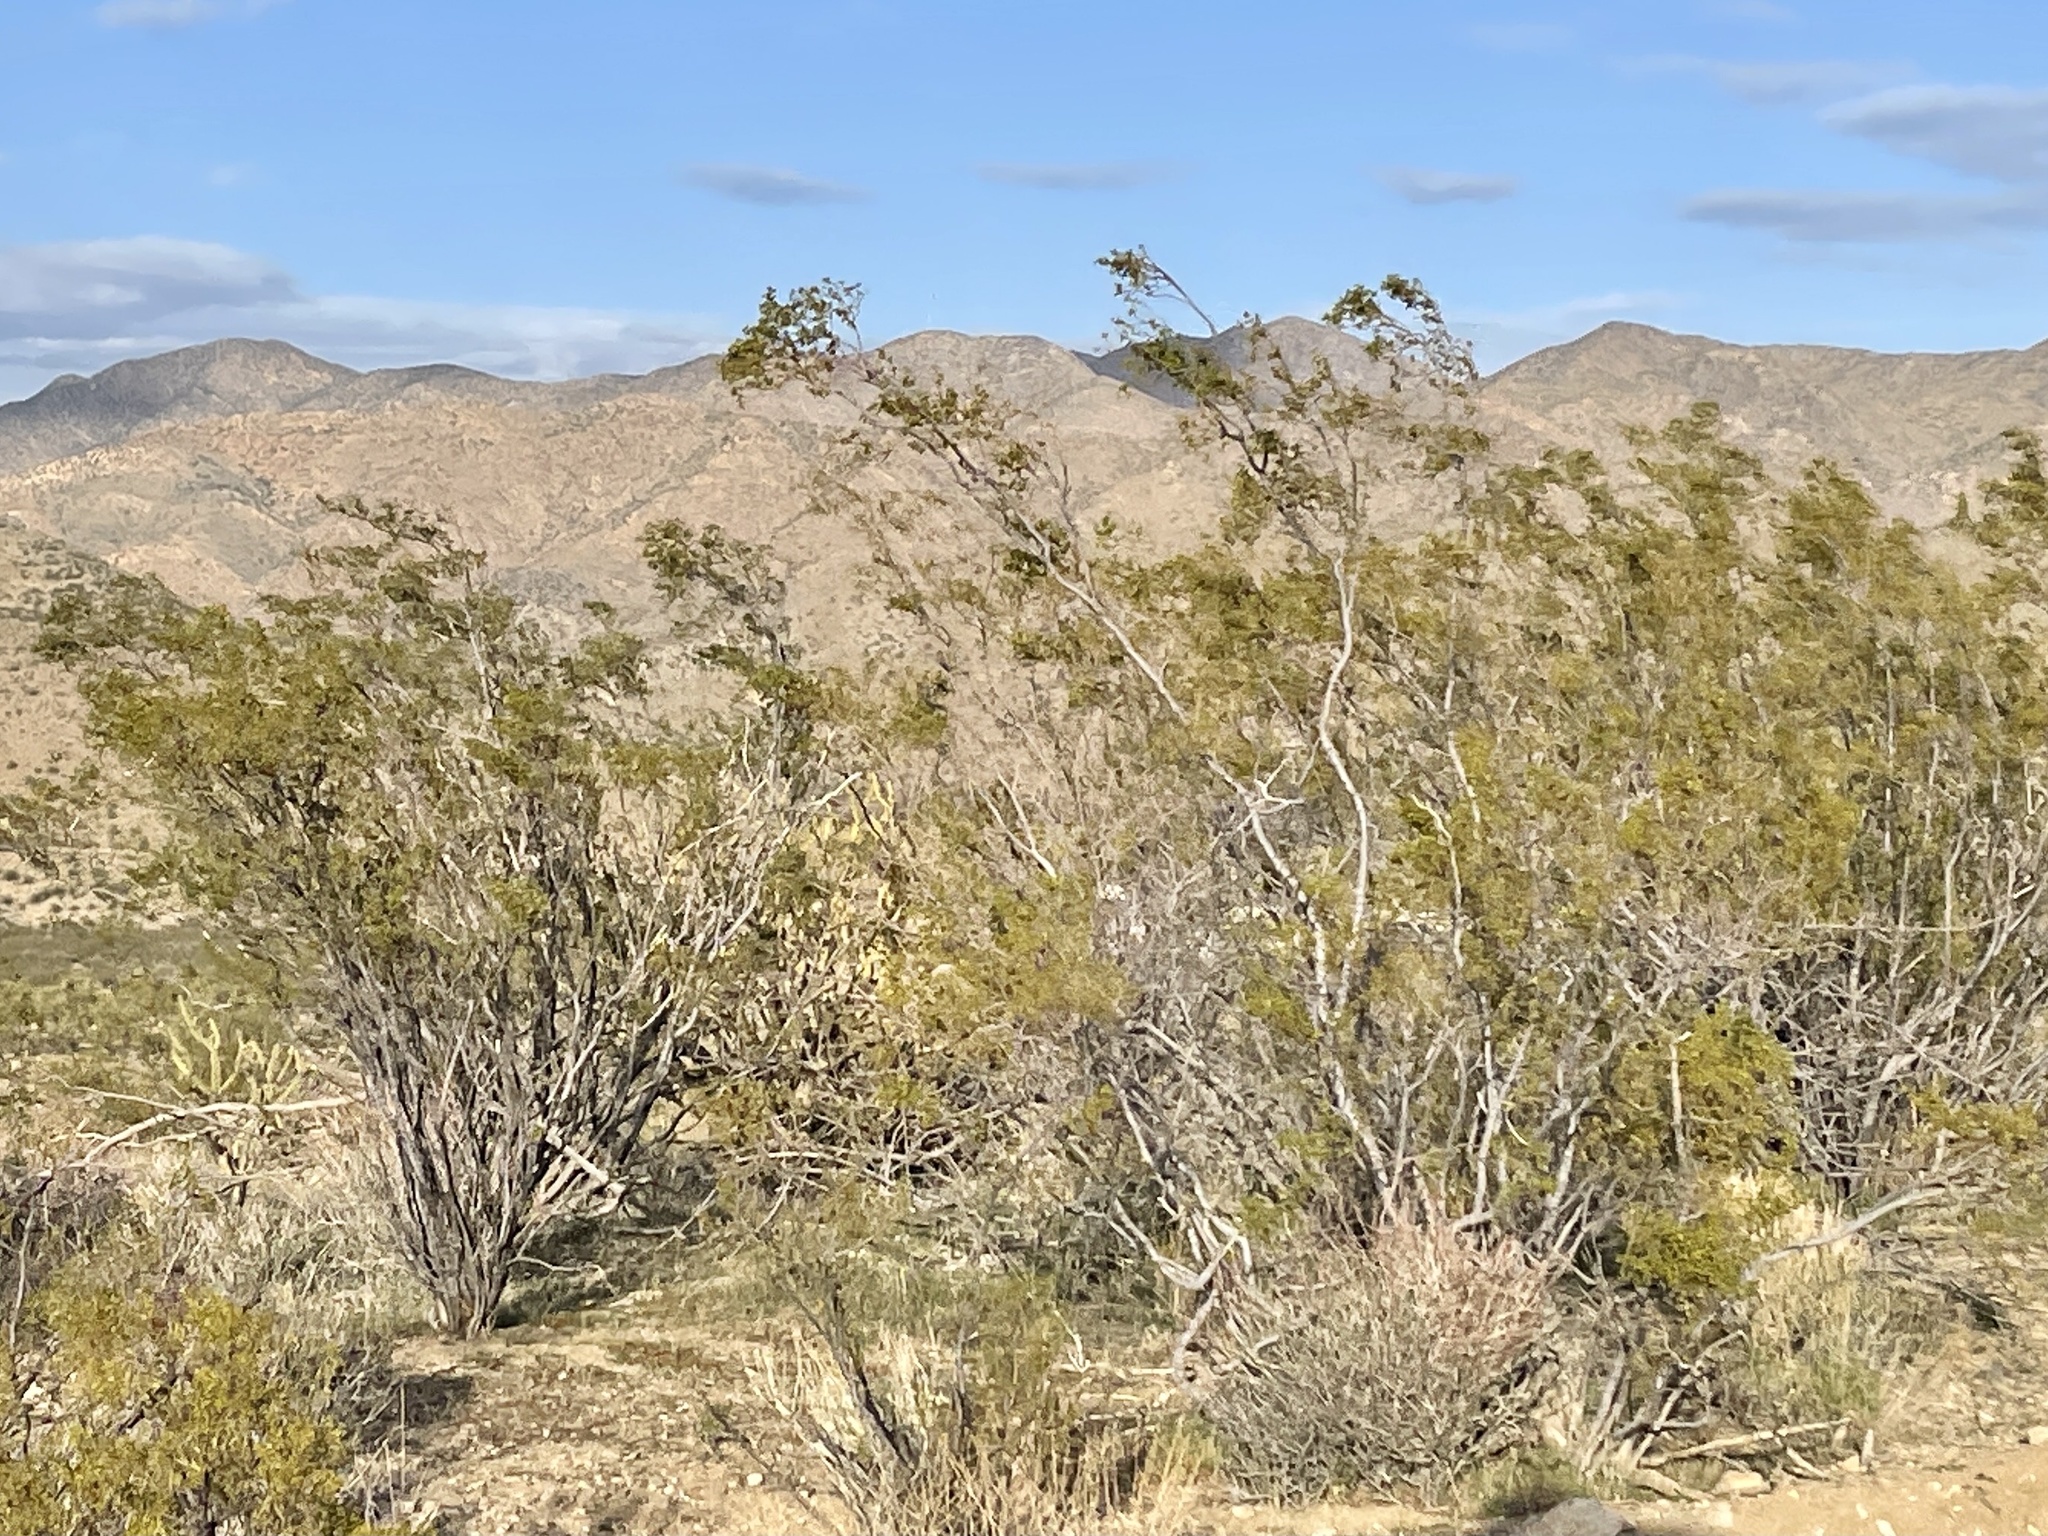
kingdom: Plantae
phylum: Tracheophyta
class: Magnoliopsida
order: Zygophyllales
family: Zygophyllaceae
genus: Larrea
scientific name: Larrea tridentata
